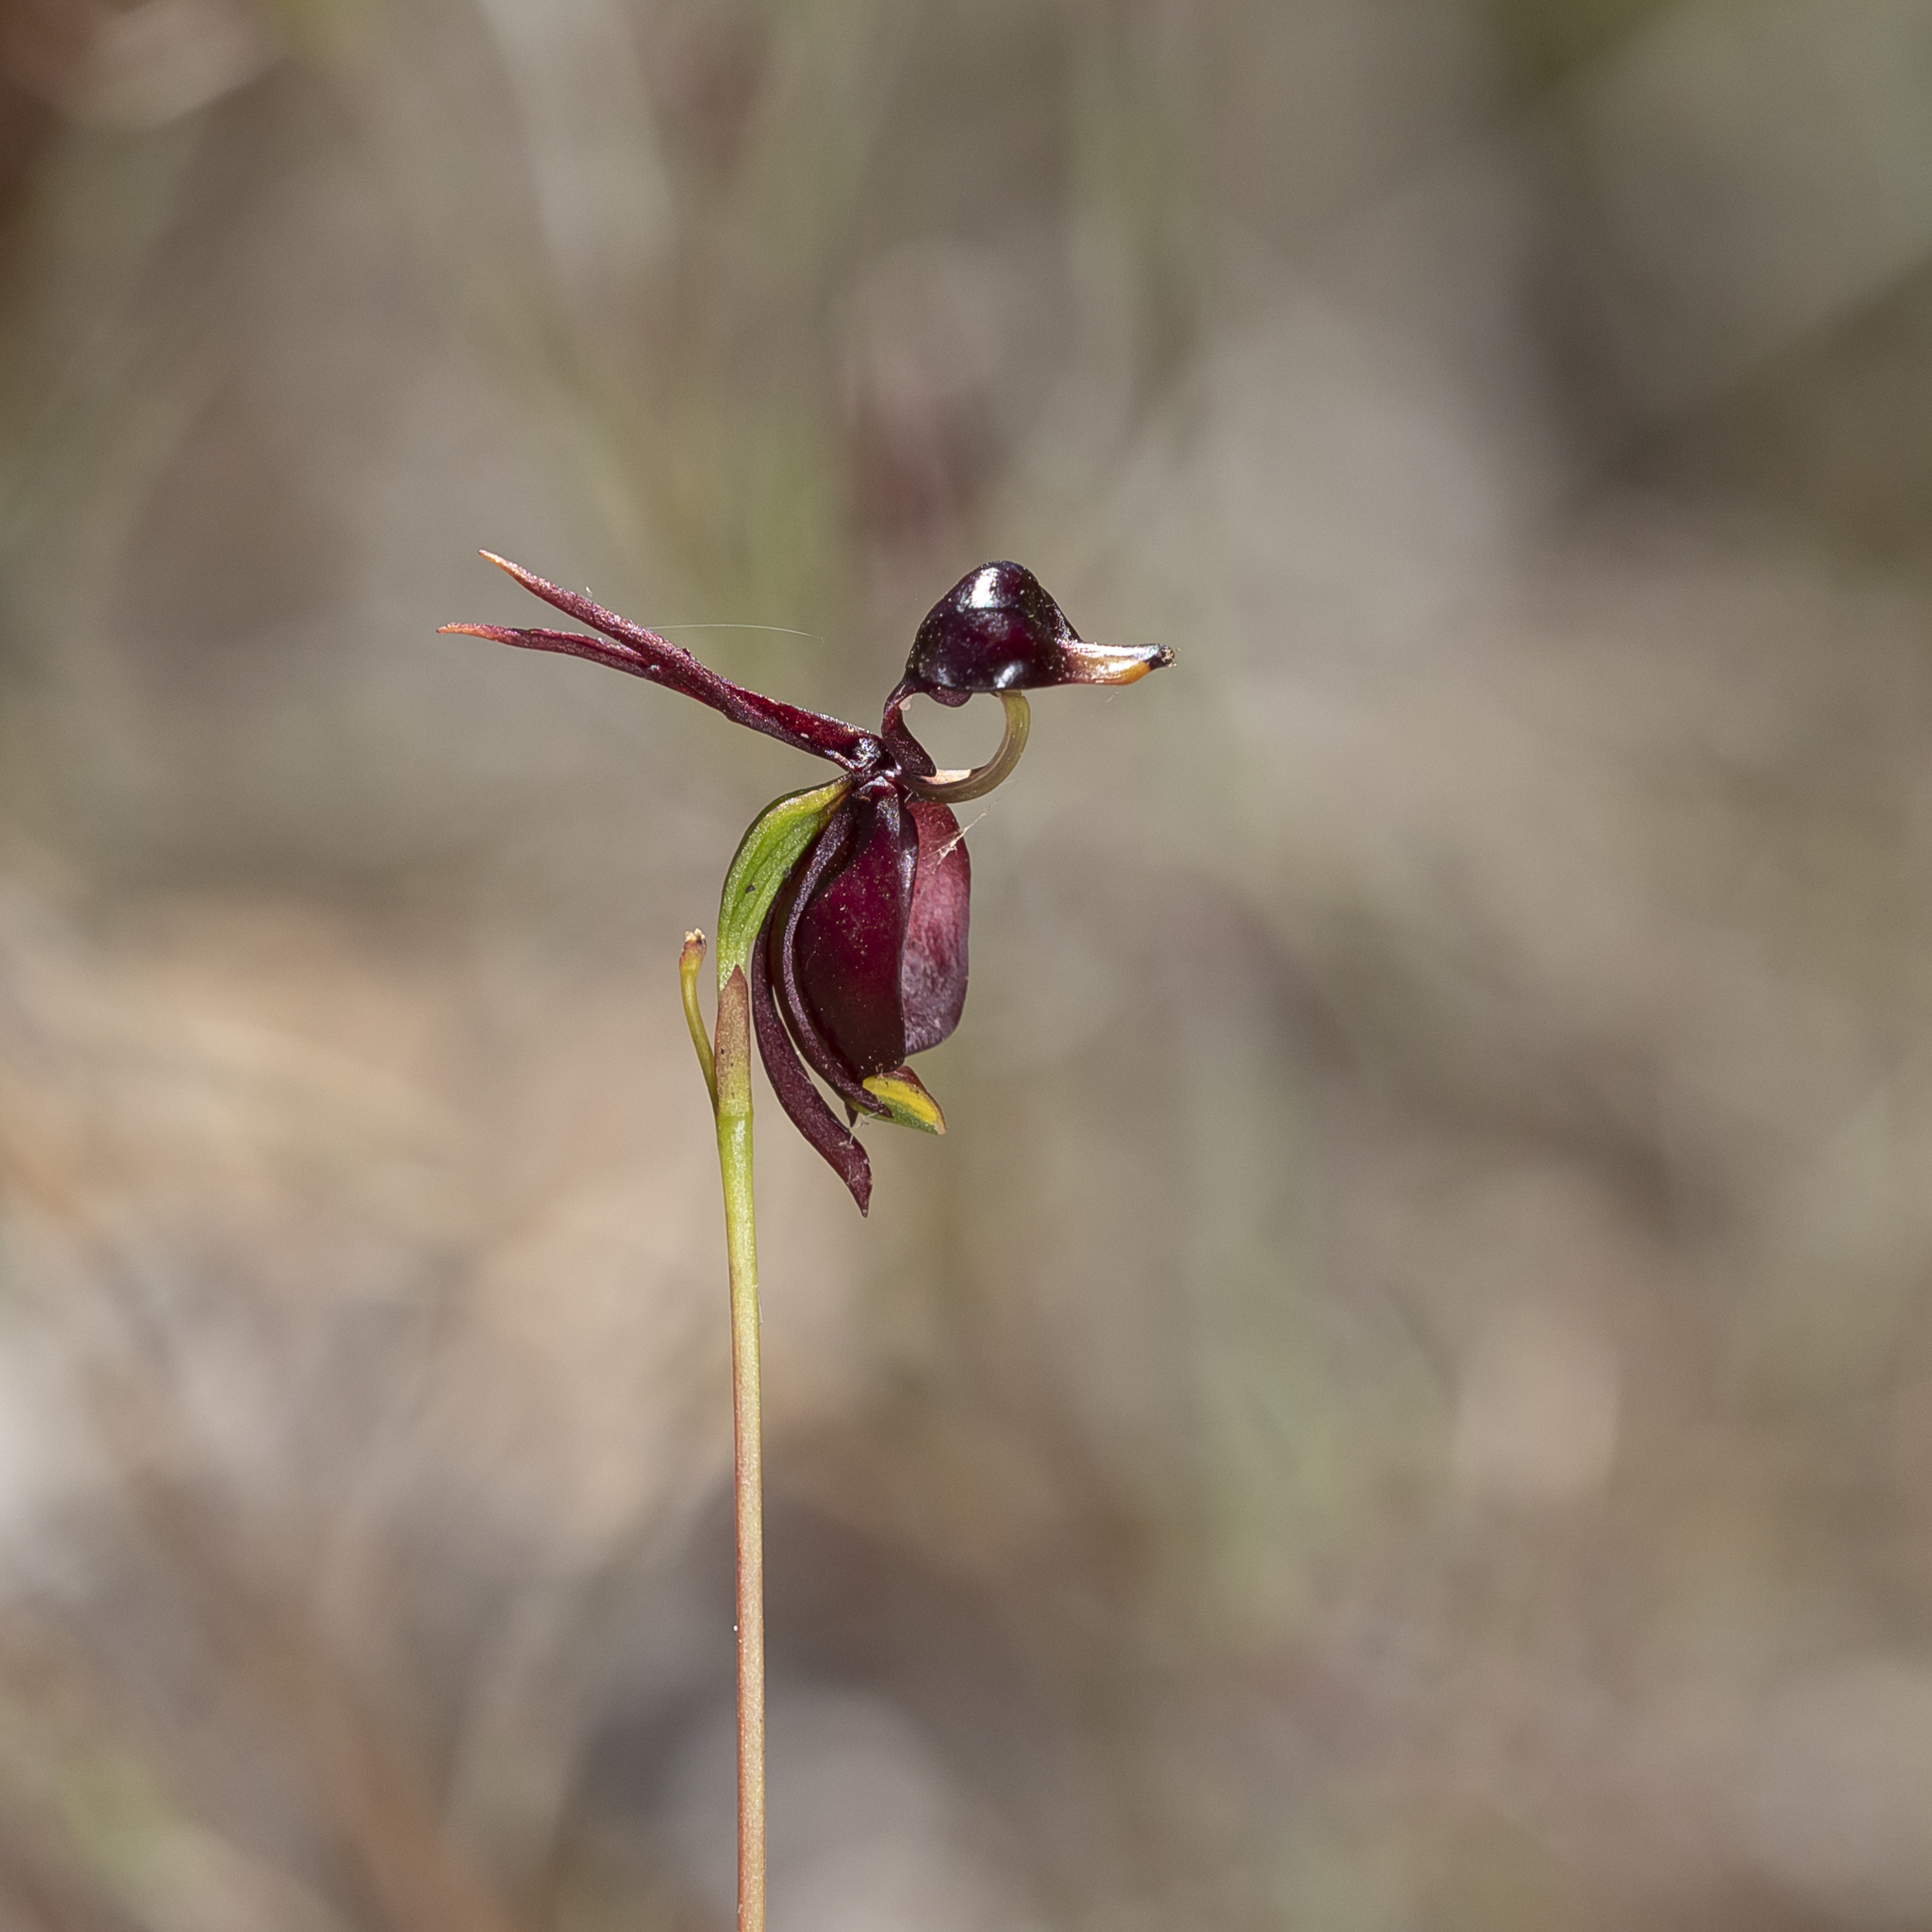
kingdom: Plantae
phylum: Tracheophyta
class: Liliopsida
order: Asparagales
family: Orchidaceae
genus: Caleana
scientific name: Caleana major
